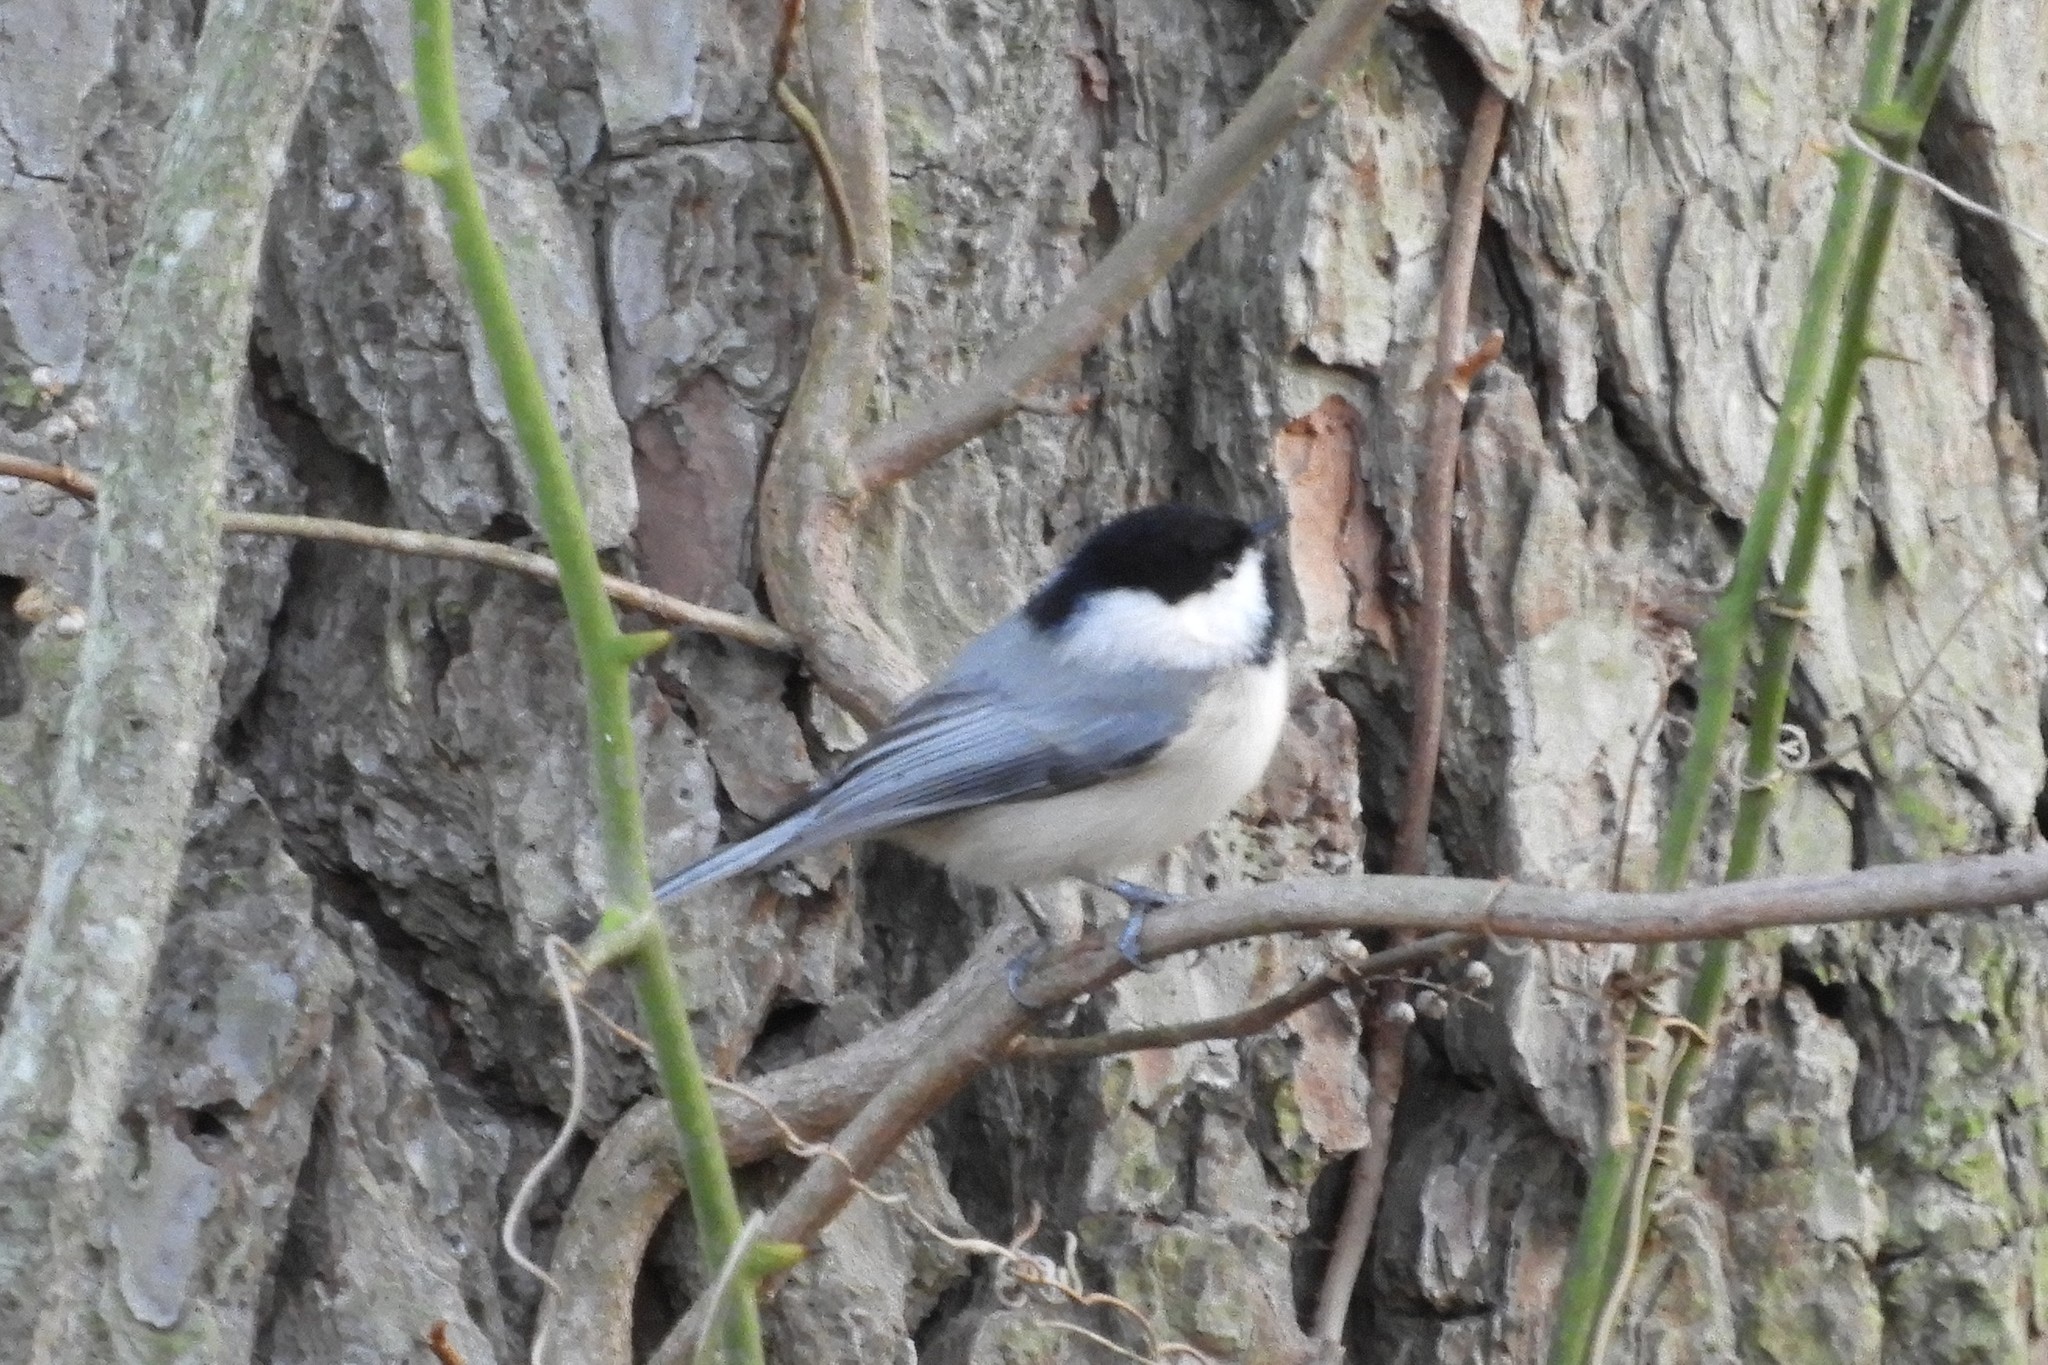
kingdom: Animalia
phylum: Chordata
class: Aves
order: Passeriformes
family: Paridae
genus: Poecile
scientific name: Poecile carolinensis
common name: Carolina chickadee
